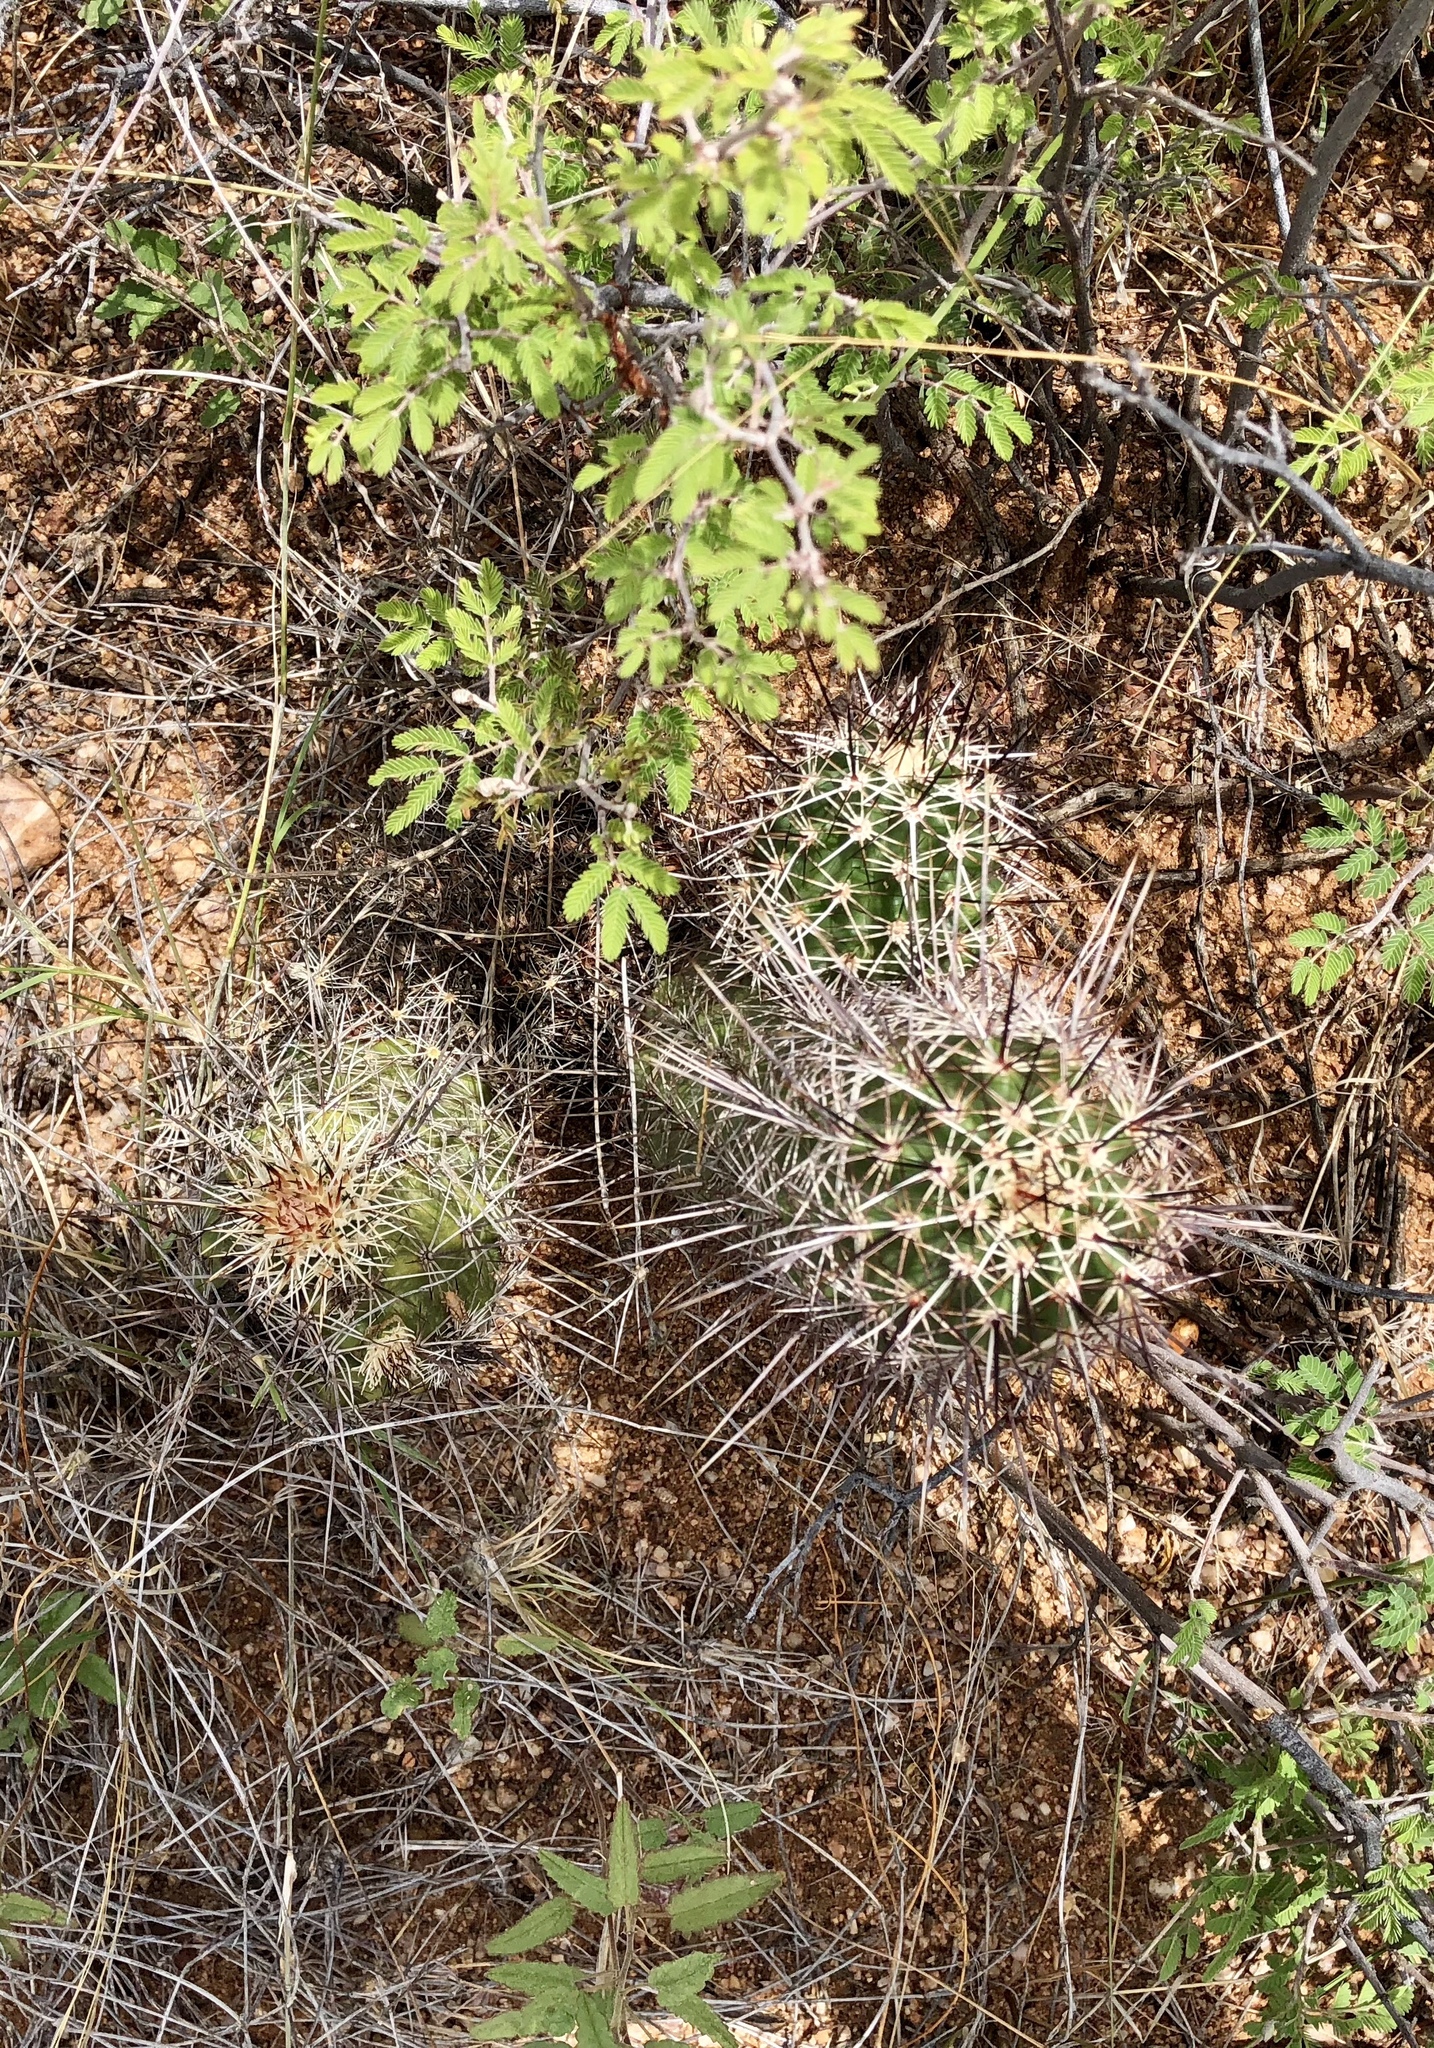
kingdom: Plantae
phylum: Tracheophyta
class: Magnoliopsida
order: Caryophyllales
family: Cactaceae
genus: Echinocereus
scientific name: Echinocereus fasciculatus
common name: Bundle hedgehog
